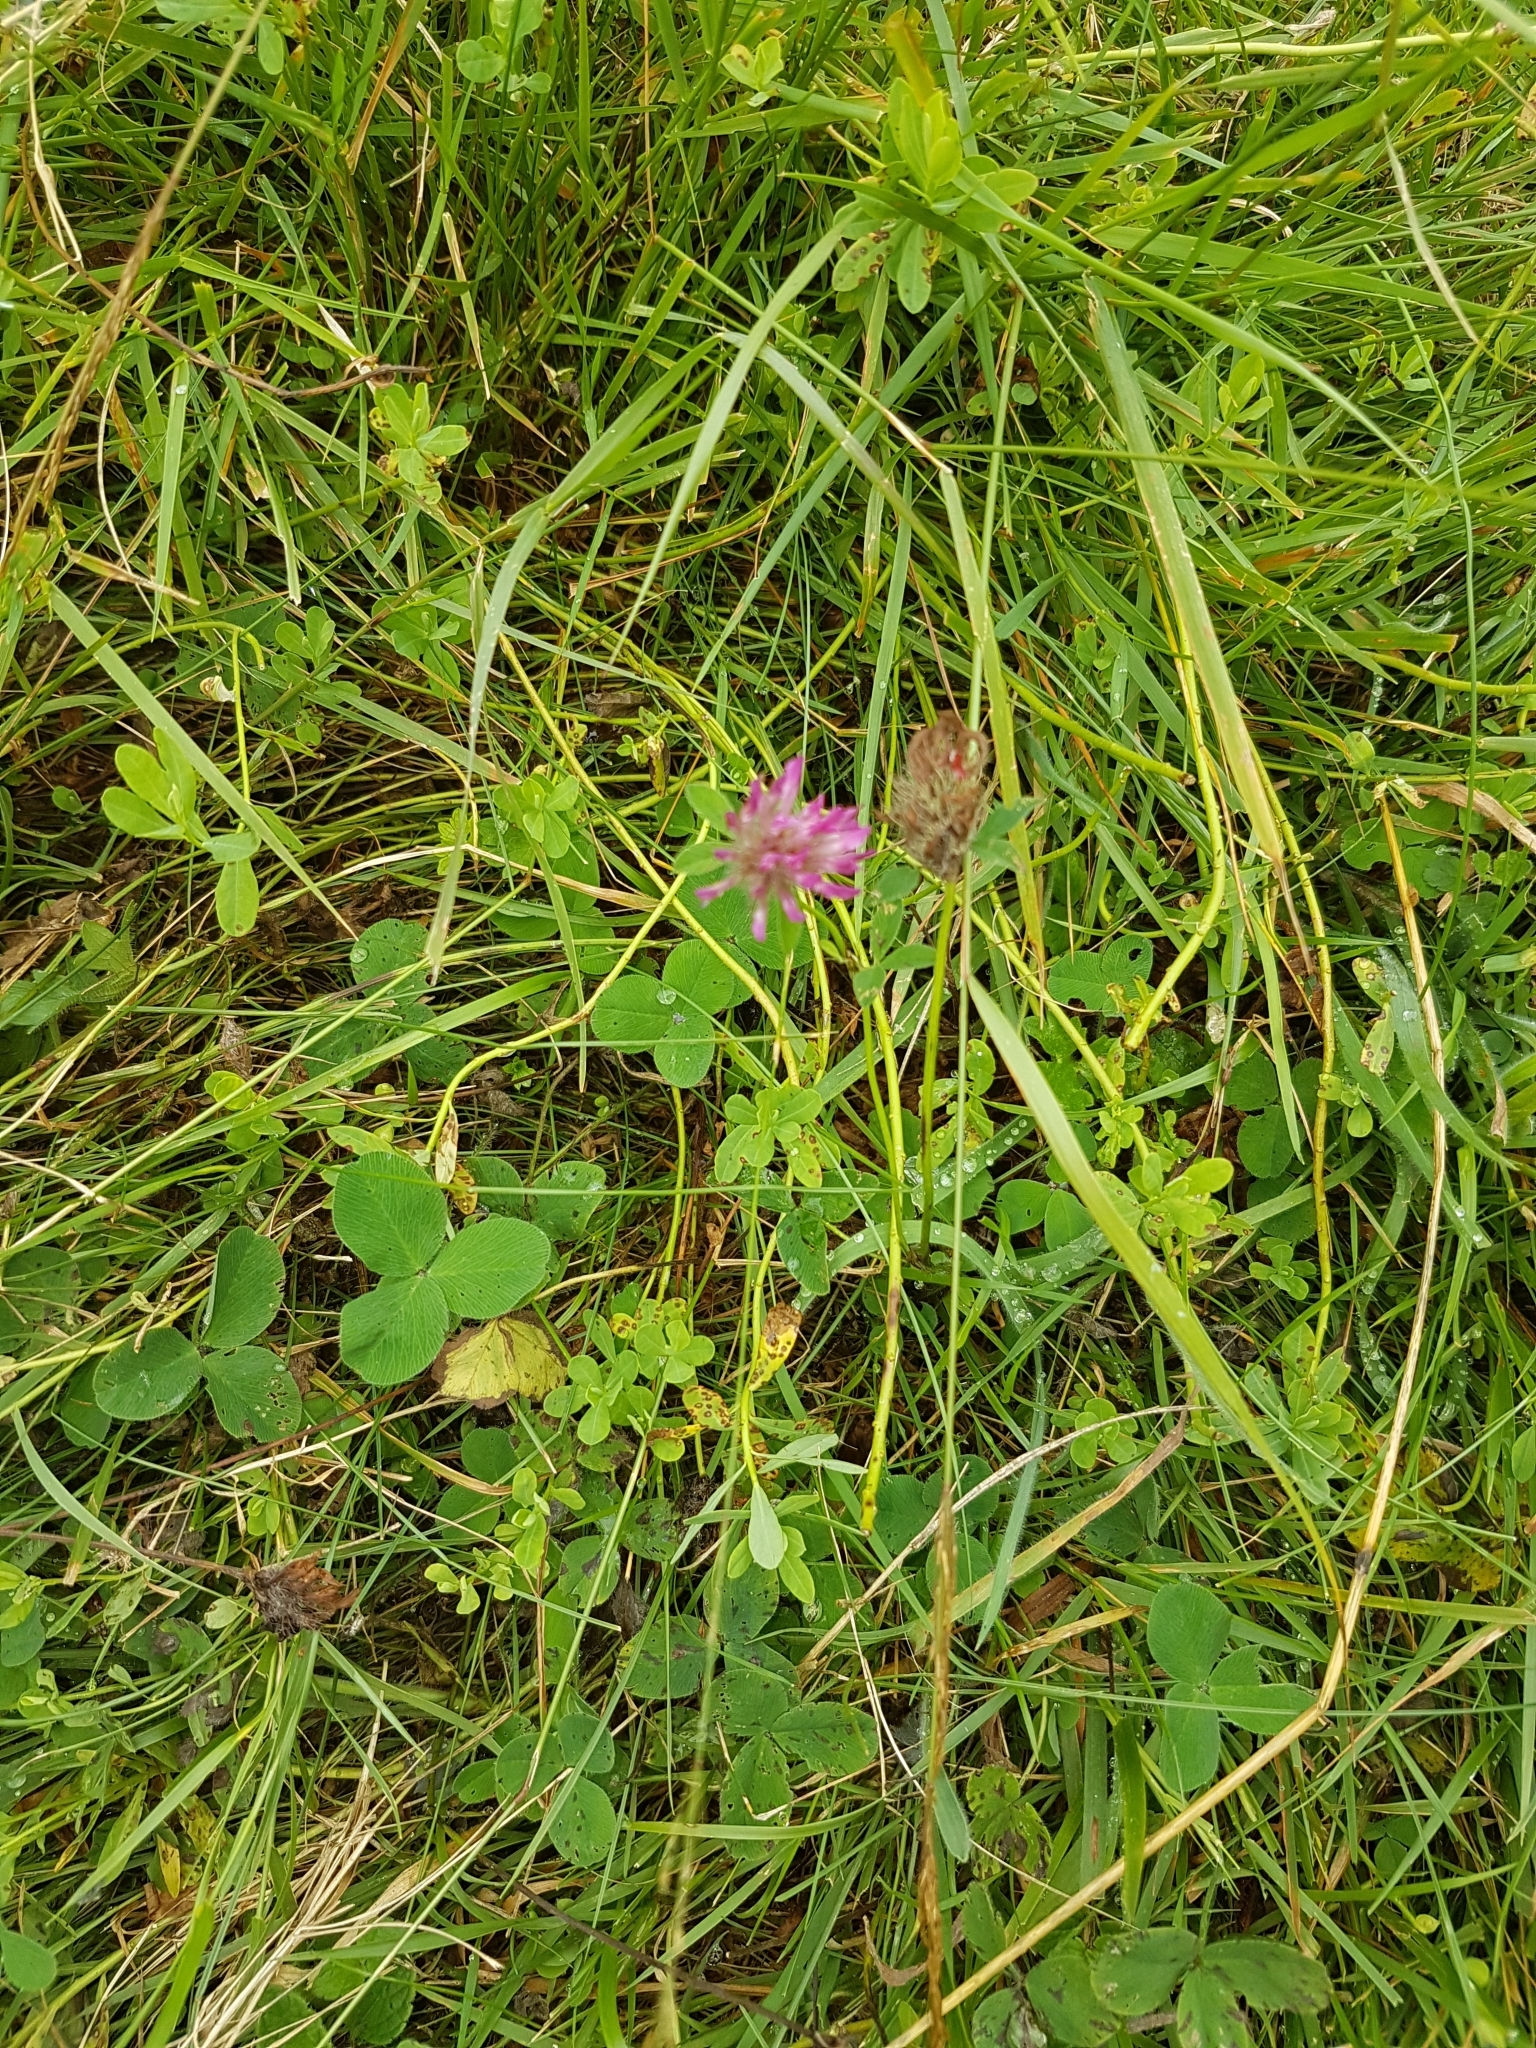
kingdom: Plantae
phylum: Tracheophyta
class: Magnoliopsida
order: Fabales
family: Fabaceae
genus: Trifolium
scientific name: Trifolium pratense
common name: Red clover
